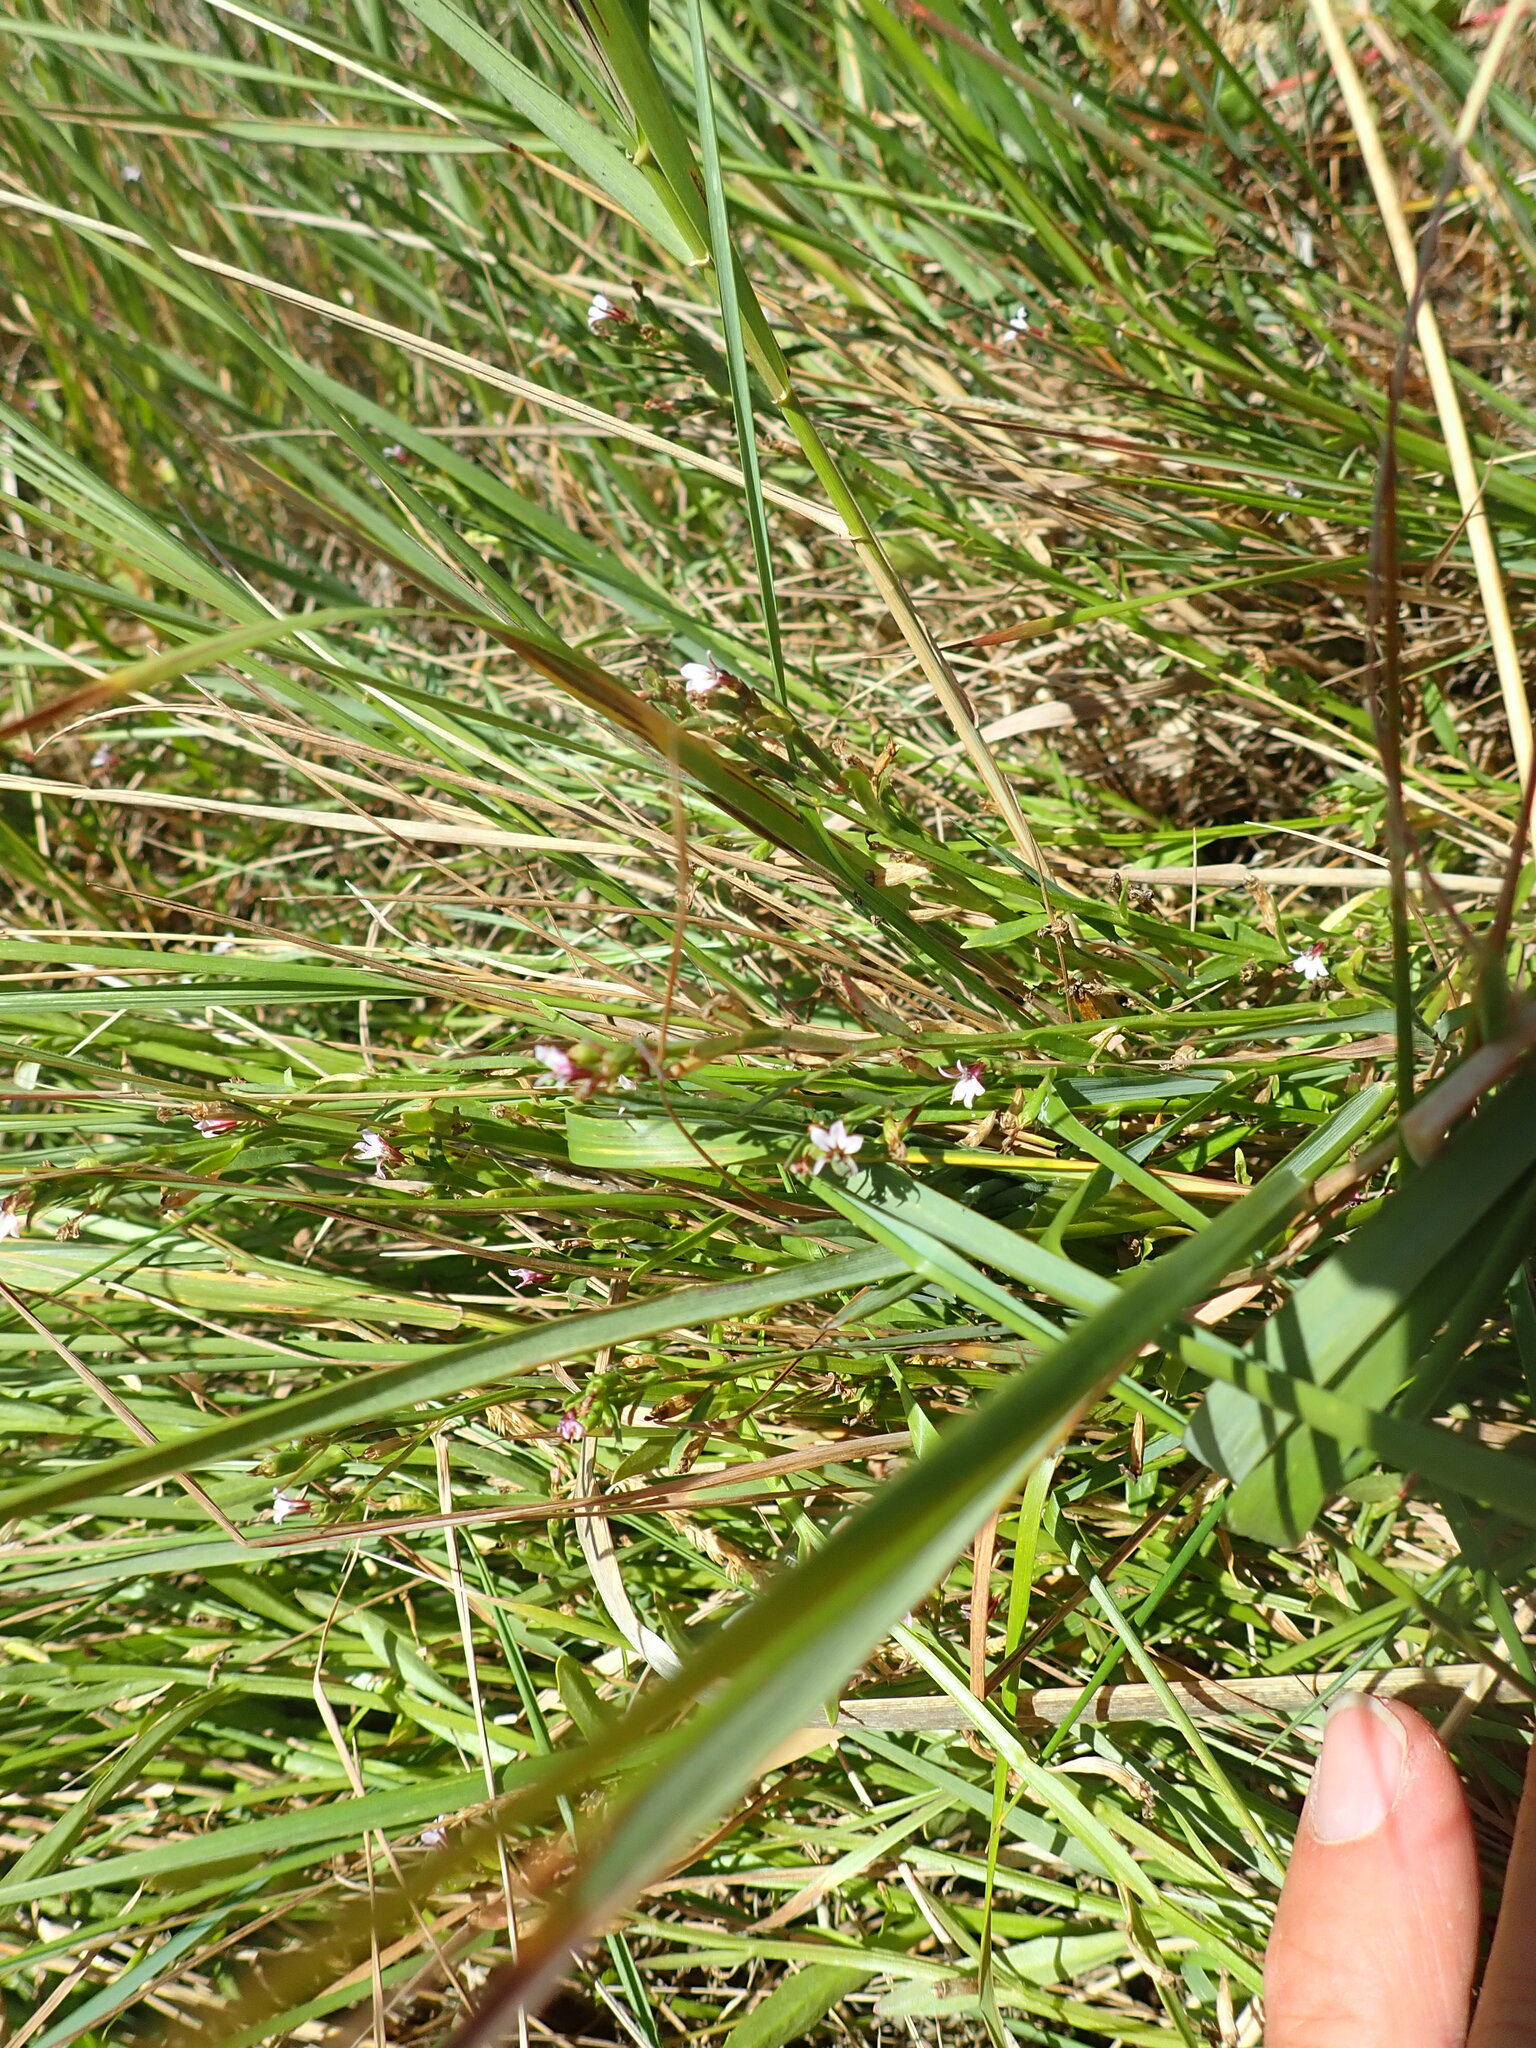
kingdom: Plantae
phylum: Tracheophyta
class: Magnoliopsida
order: Asterales
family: Campanulaceae
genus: Lobelia
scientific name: Lobelia anceps
